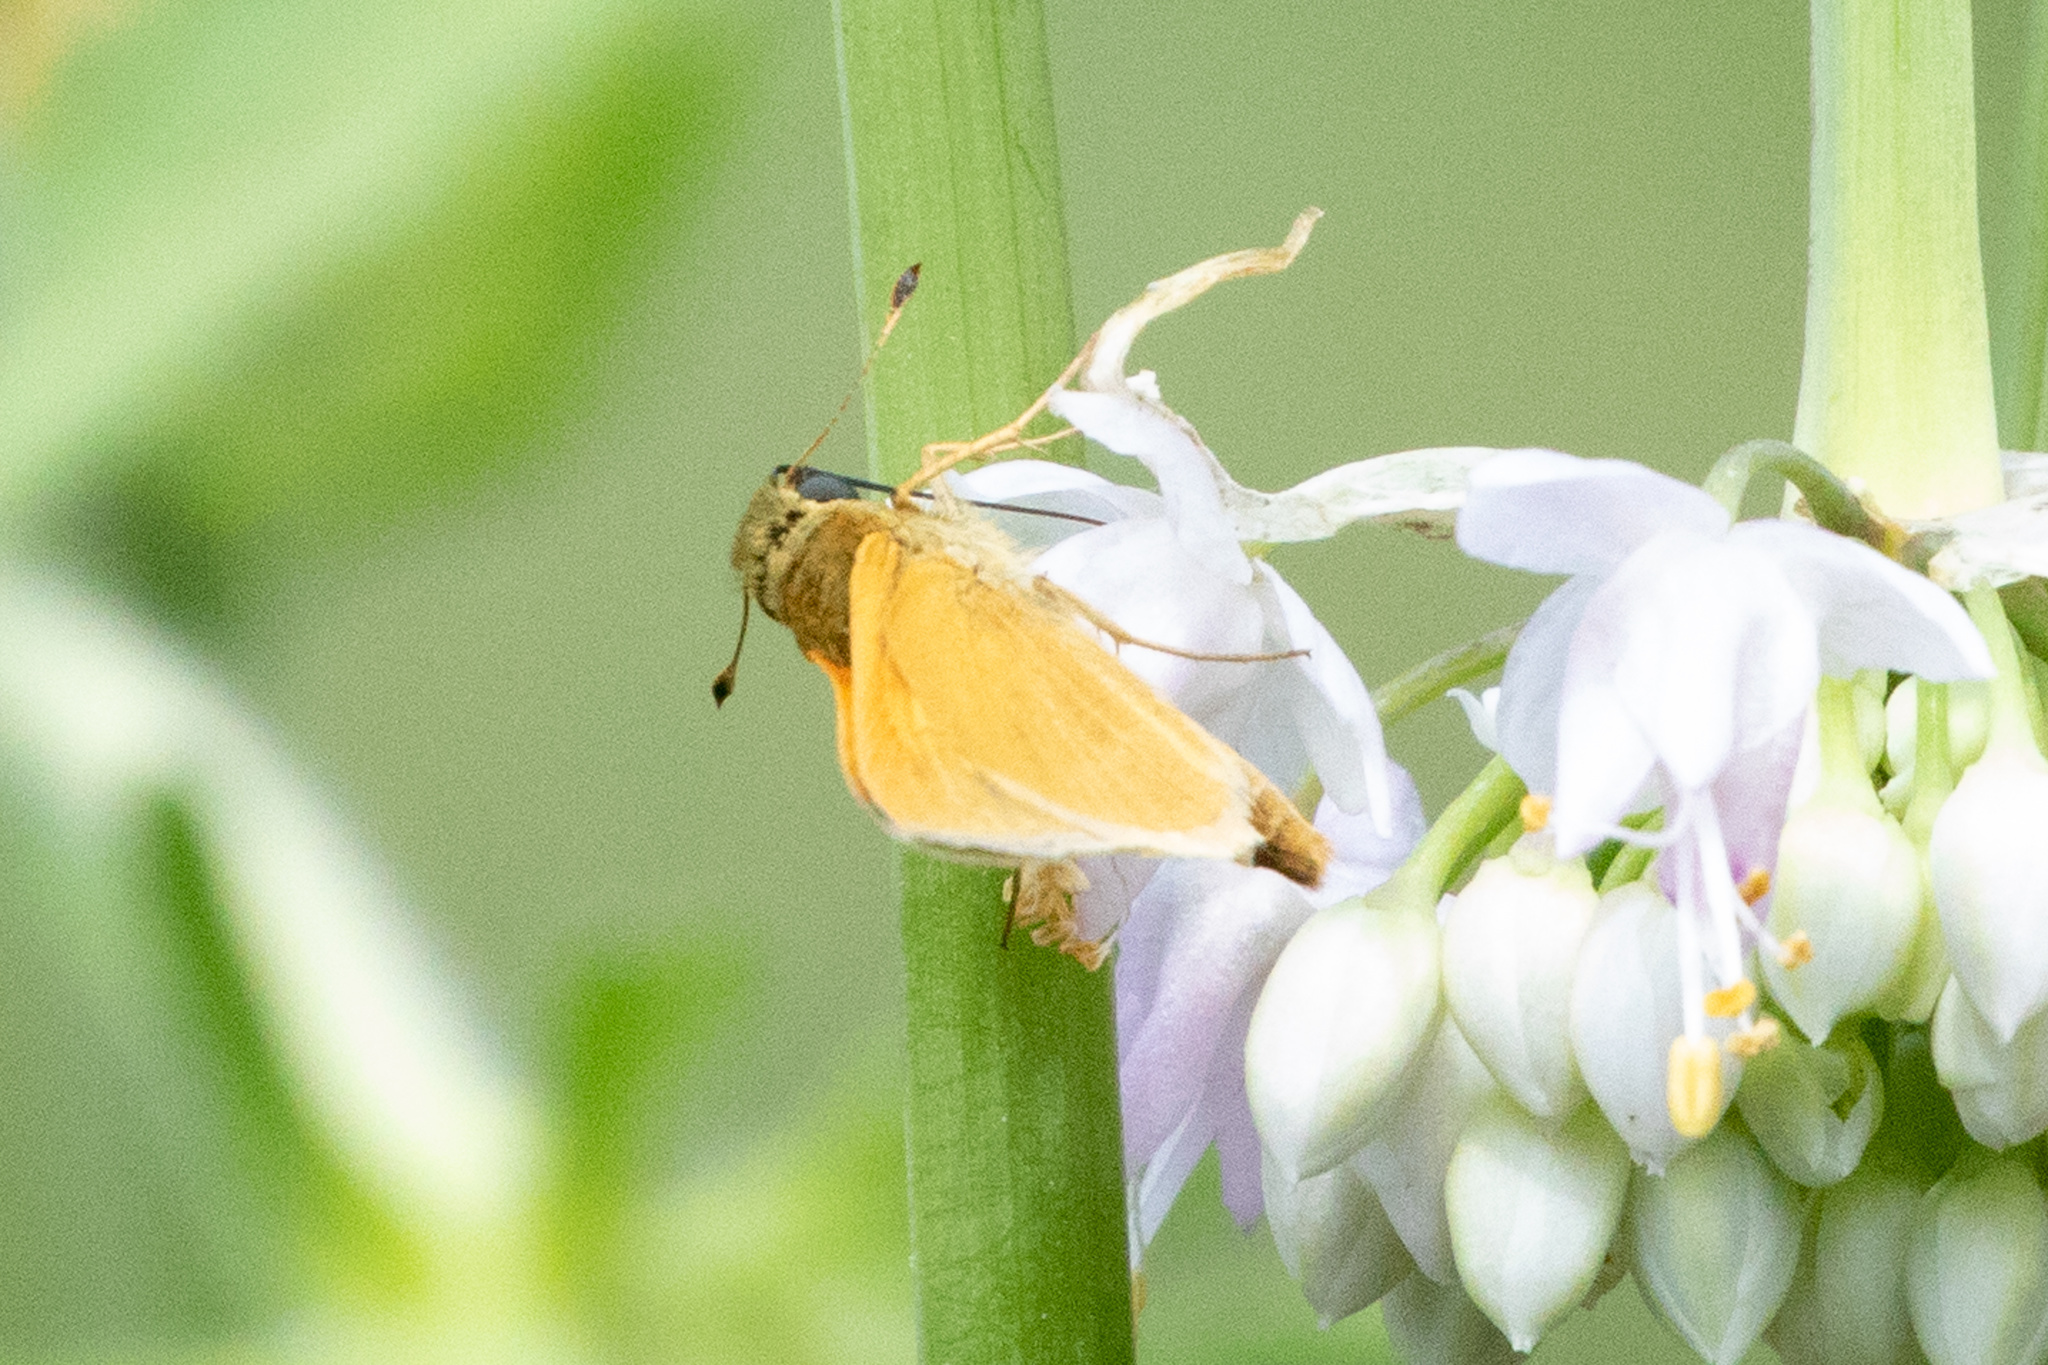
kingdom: Animalia
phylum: Arthropoda
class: Insecta
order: Lepidoptera
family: Hesperiidae
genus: Atrytone
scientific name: Atrytone delaware
